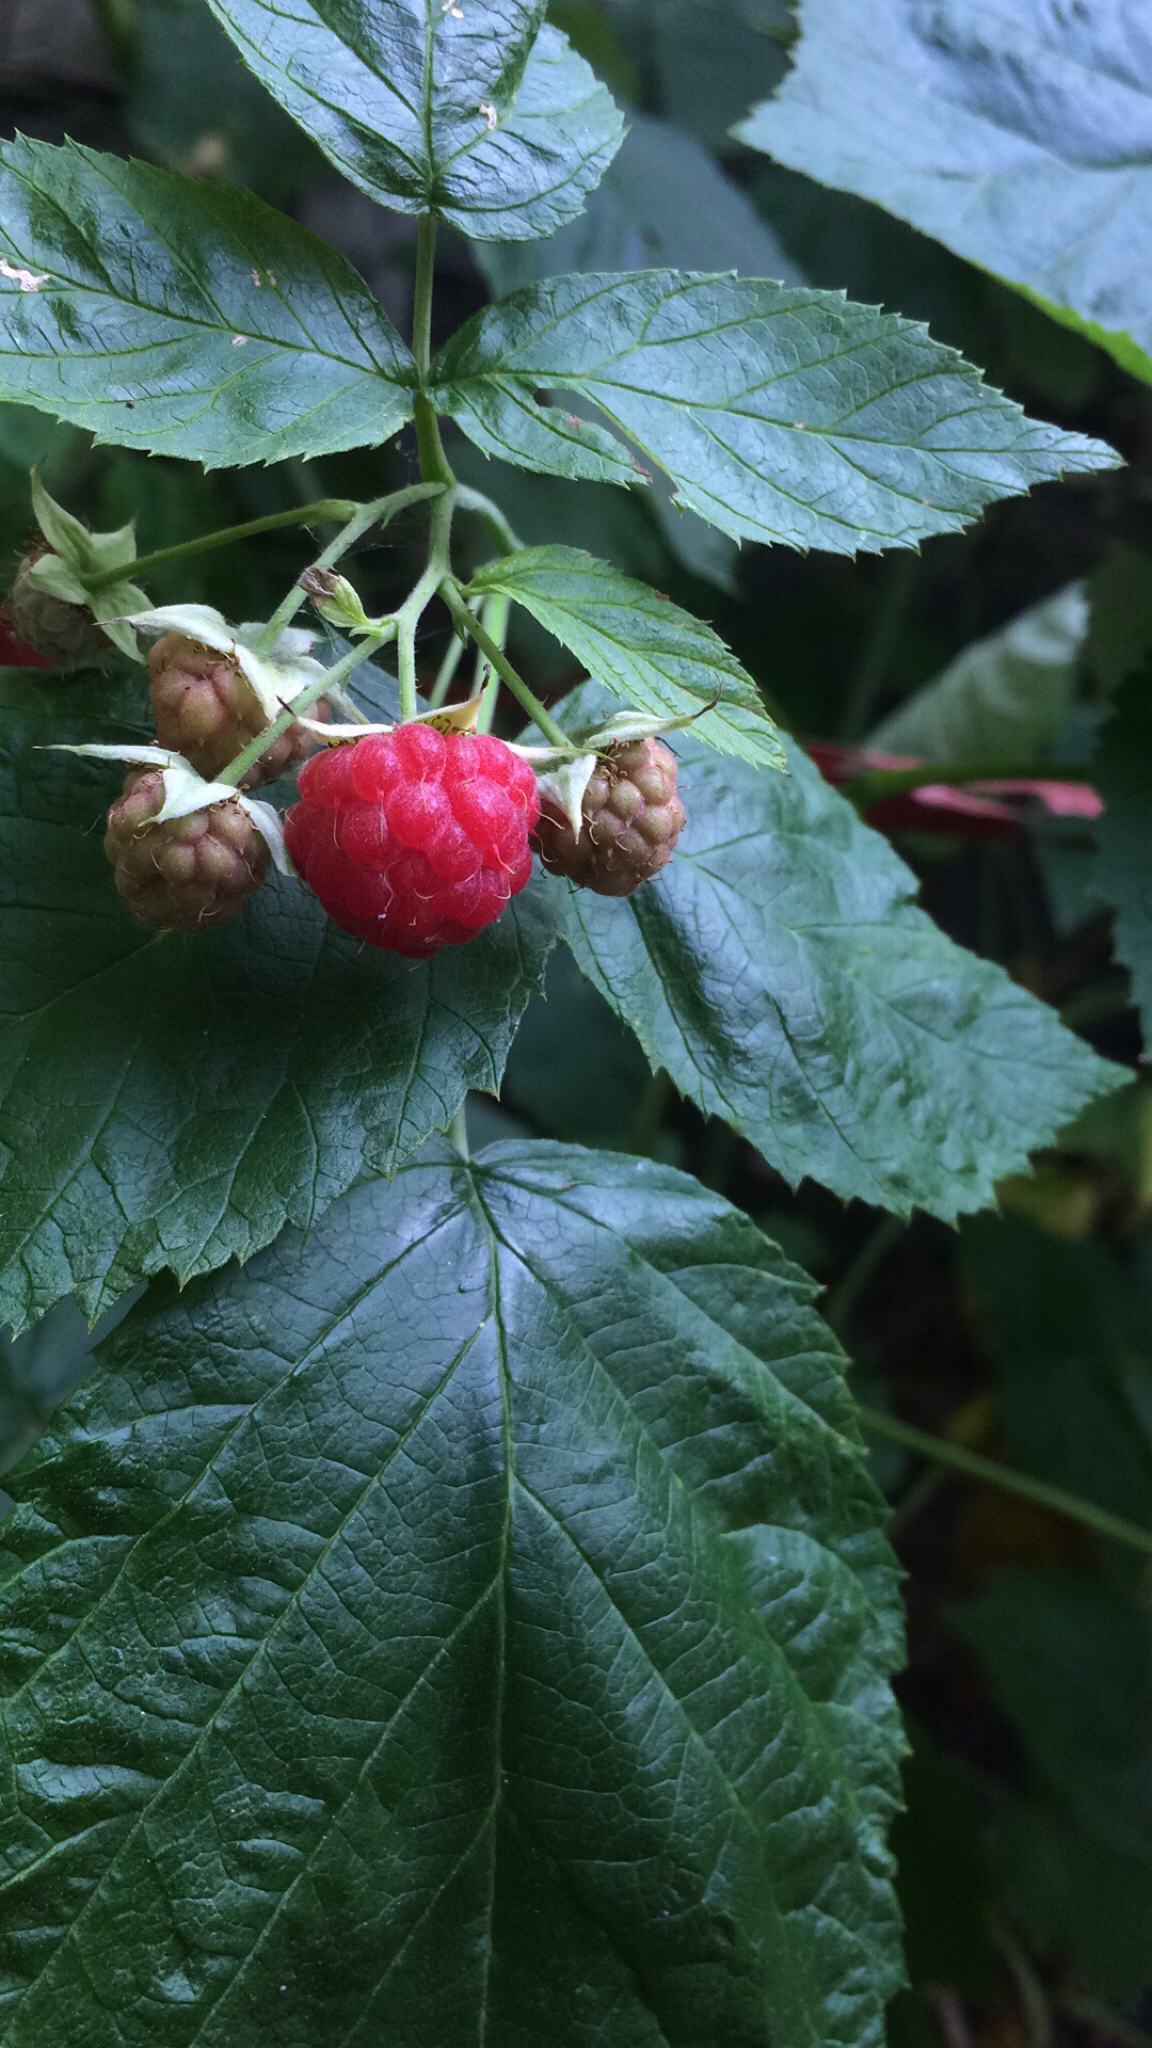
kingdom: Plantae
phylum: Tracheophyta
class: Magnoliopsida
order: Rosales
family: Rosaceae
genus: Rubus
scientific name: Rubus idaeus
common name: Raspberry
